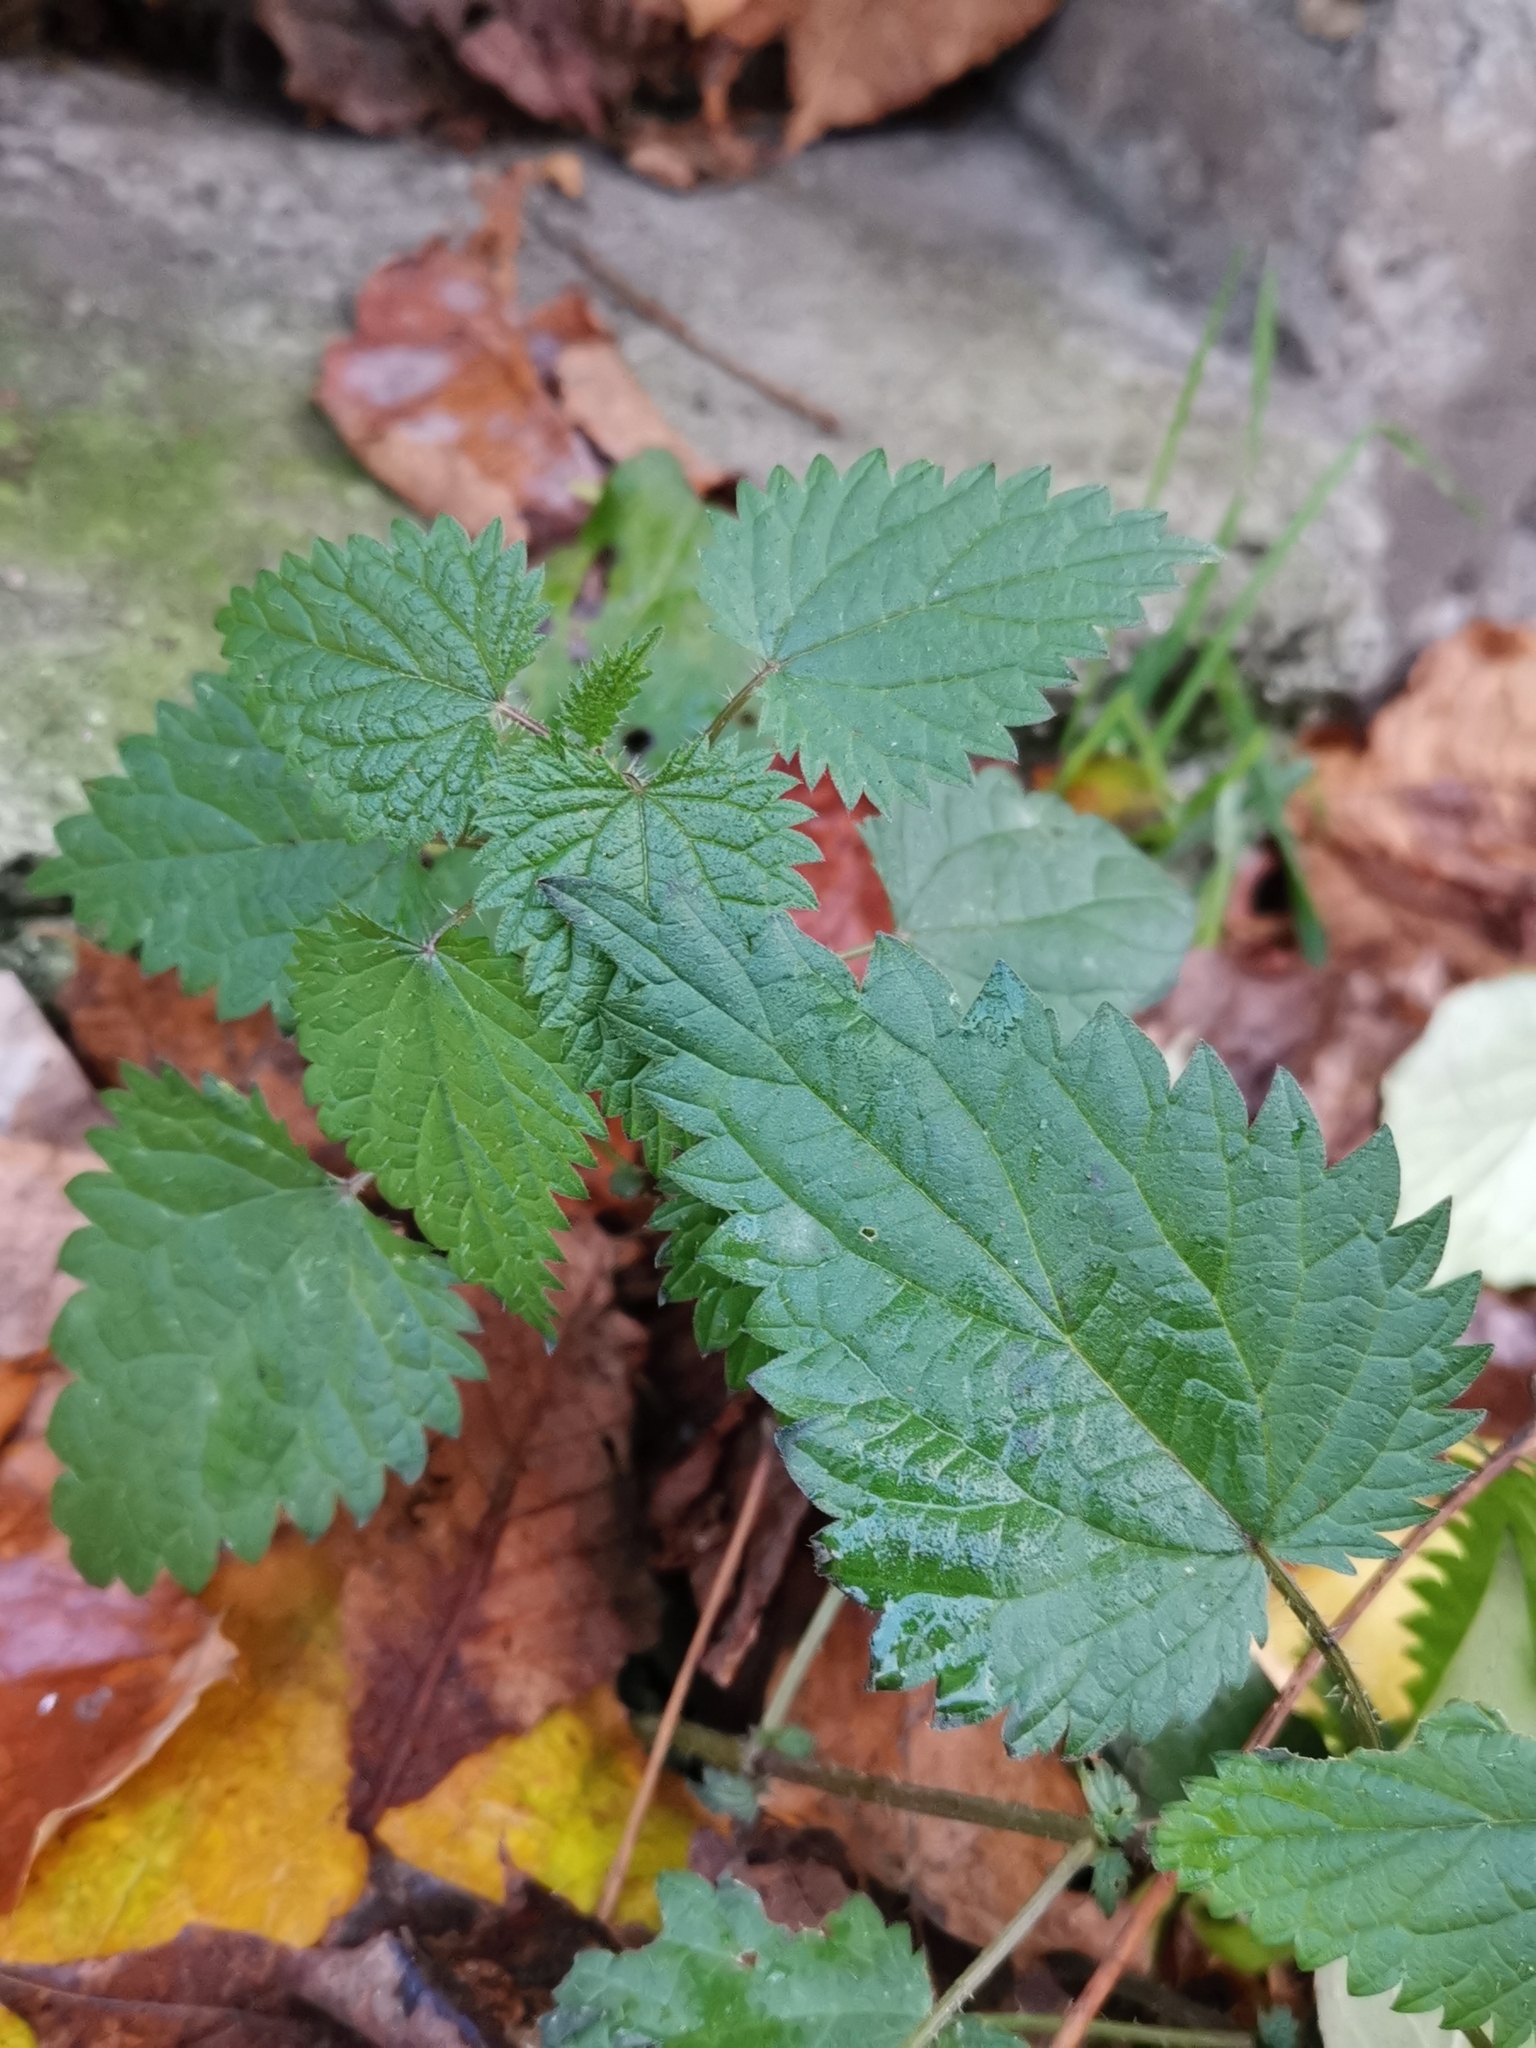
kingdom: Plantae
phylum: Tracheophyta
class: Magnoliopsida
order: Rosales
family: Urticaceae
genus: Urtica
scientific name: Urtica dioica
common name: Common nettle
